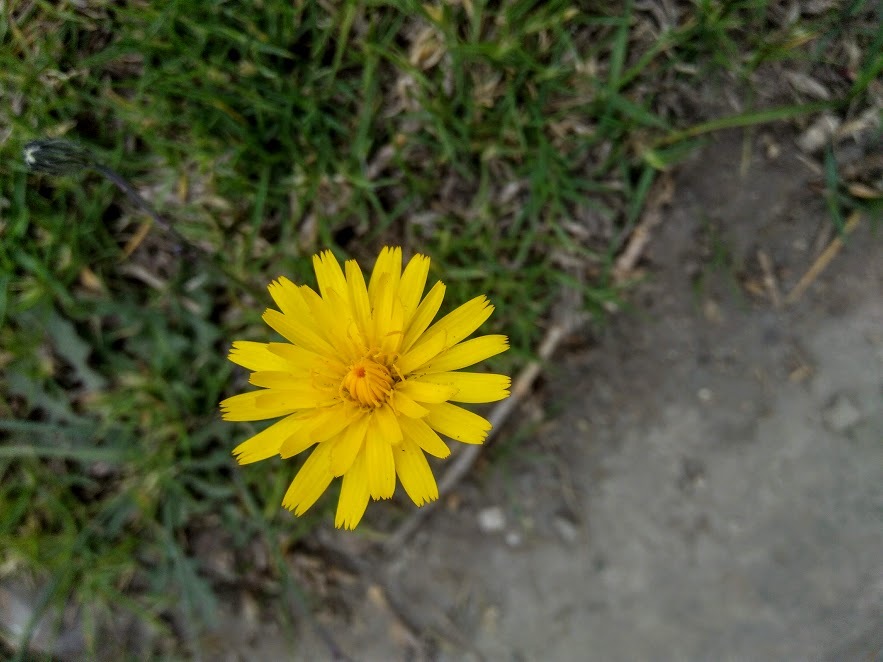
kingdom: Plantae
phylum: Tracheophyta
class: Magnoliopsida
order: Asterales
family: Asteraceae
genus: Hypochaeris
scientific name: Hypochaeris radicata
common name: Flatweed
